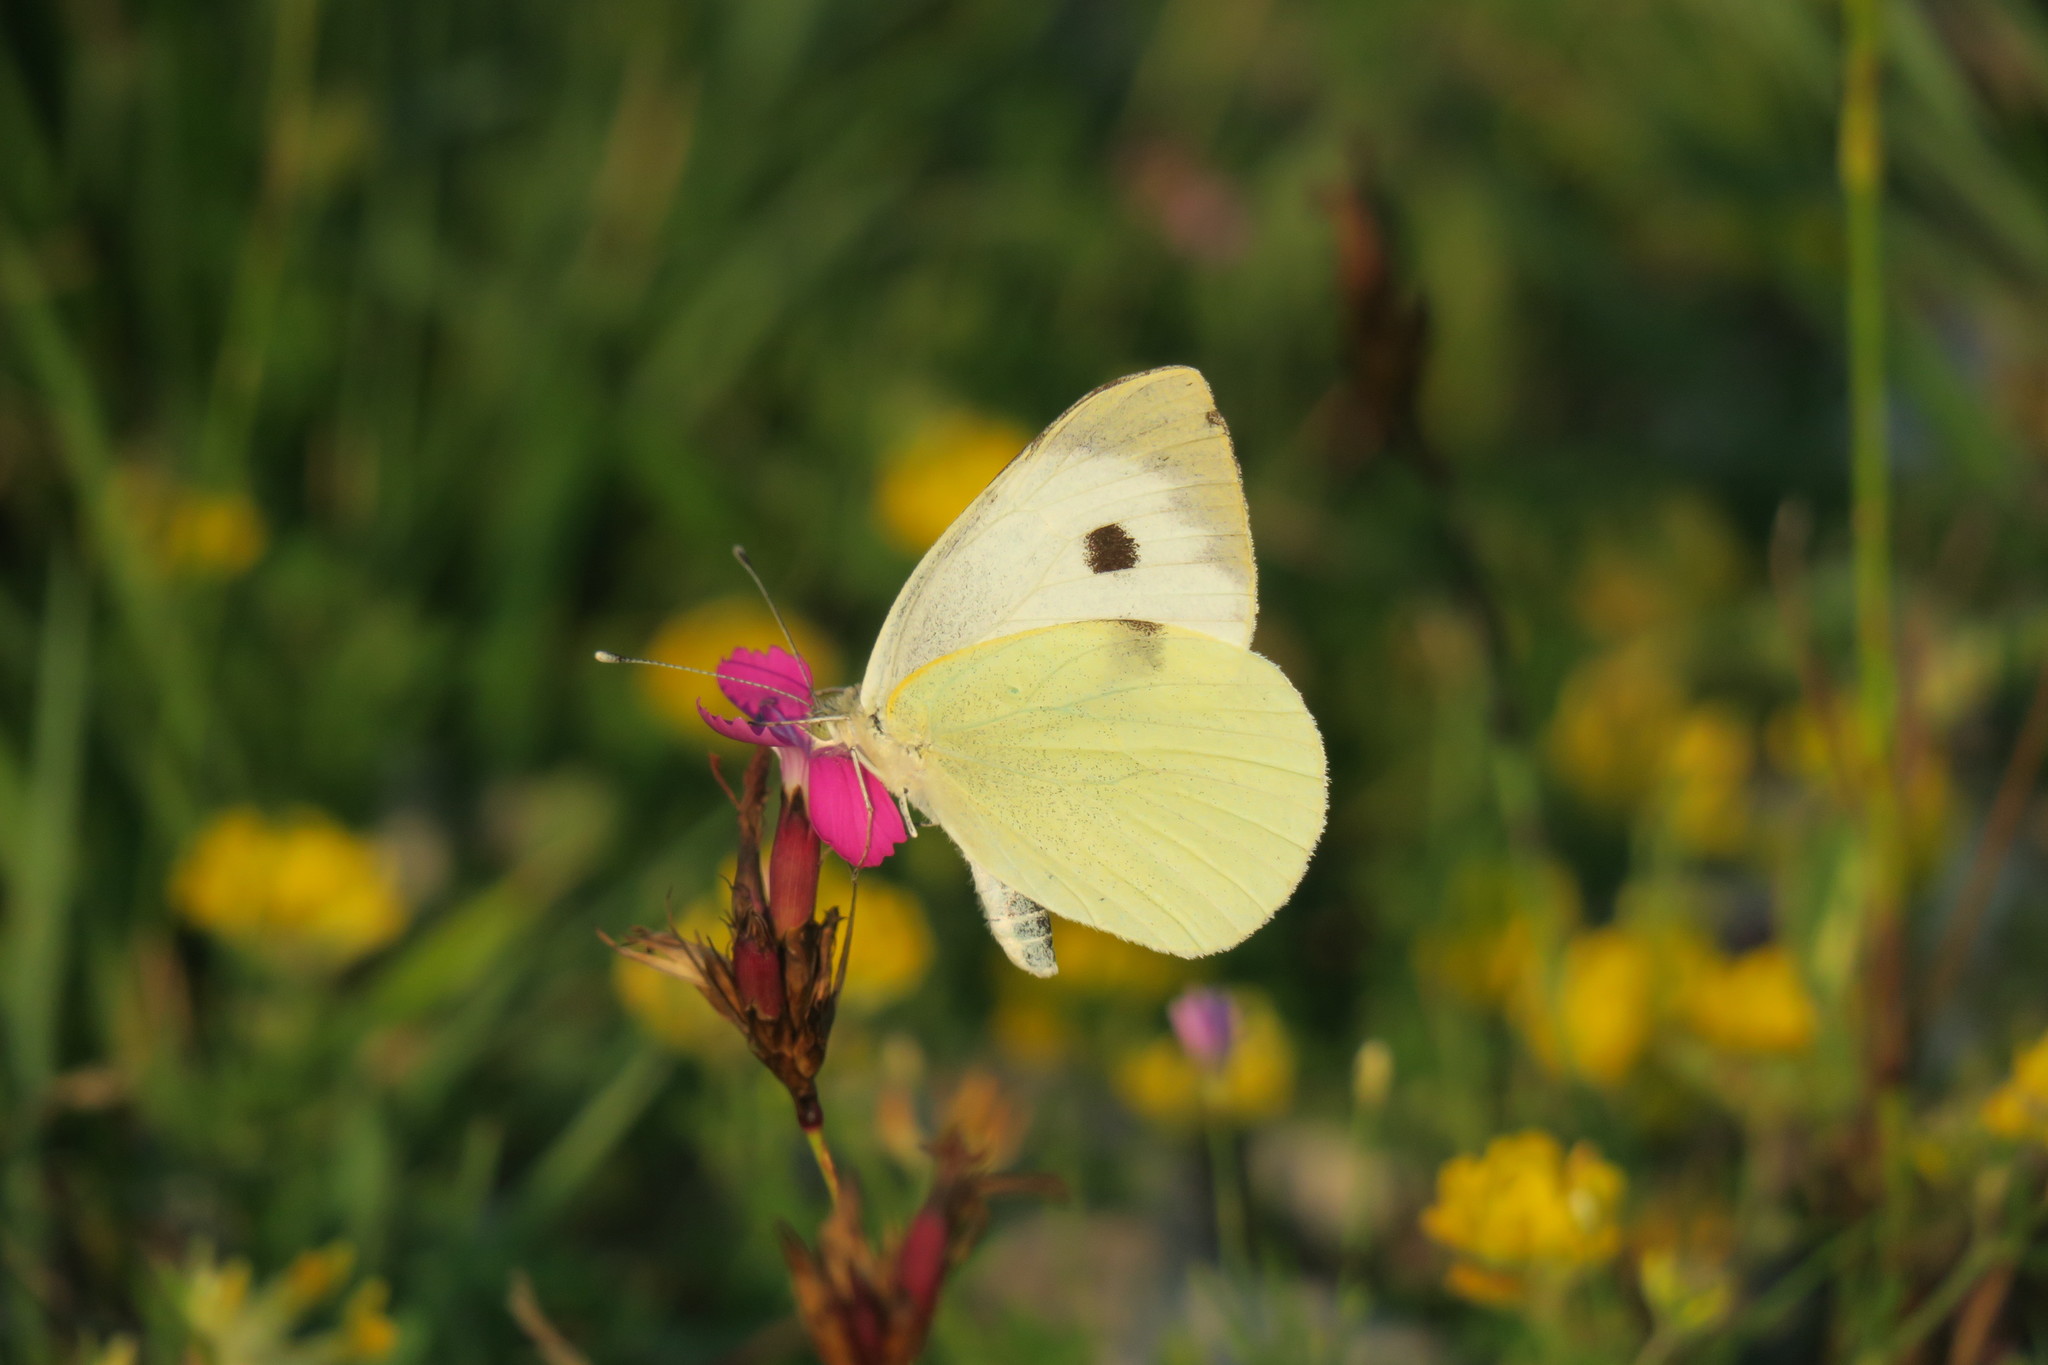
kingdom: Animalia
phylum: Arthropoda
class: Insecta
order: Lepidoptera
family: Pieridae
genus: Pieris
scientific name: Pieris brassicae
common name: Large white
